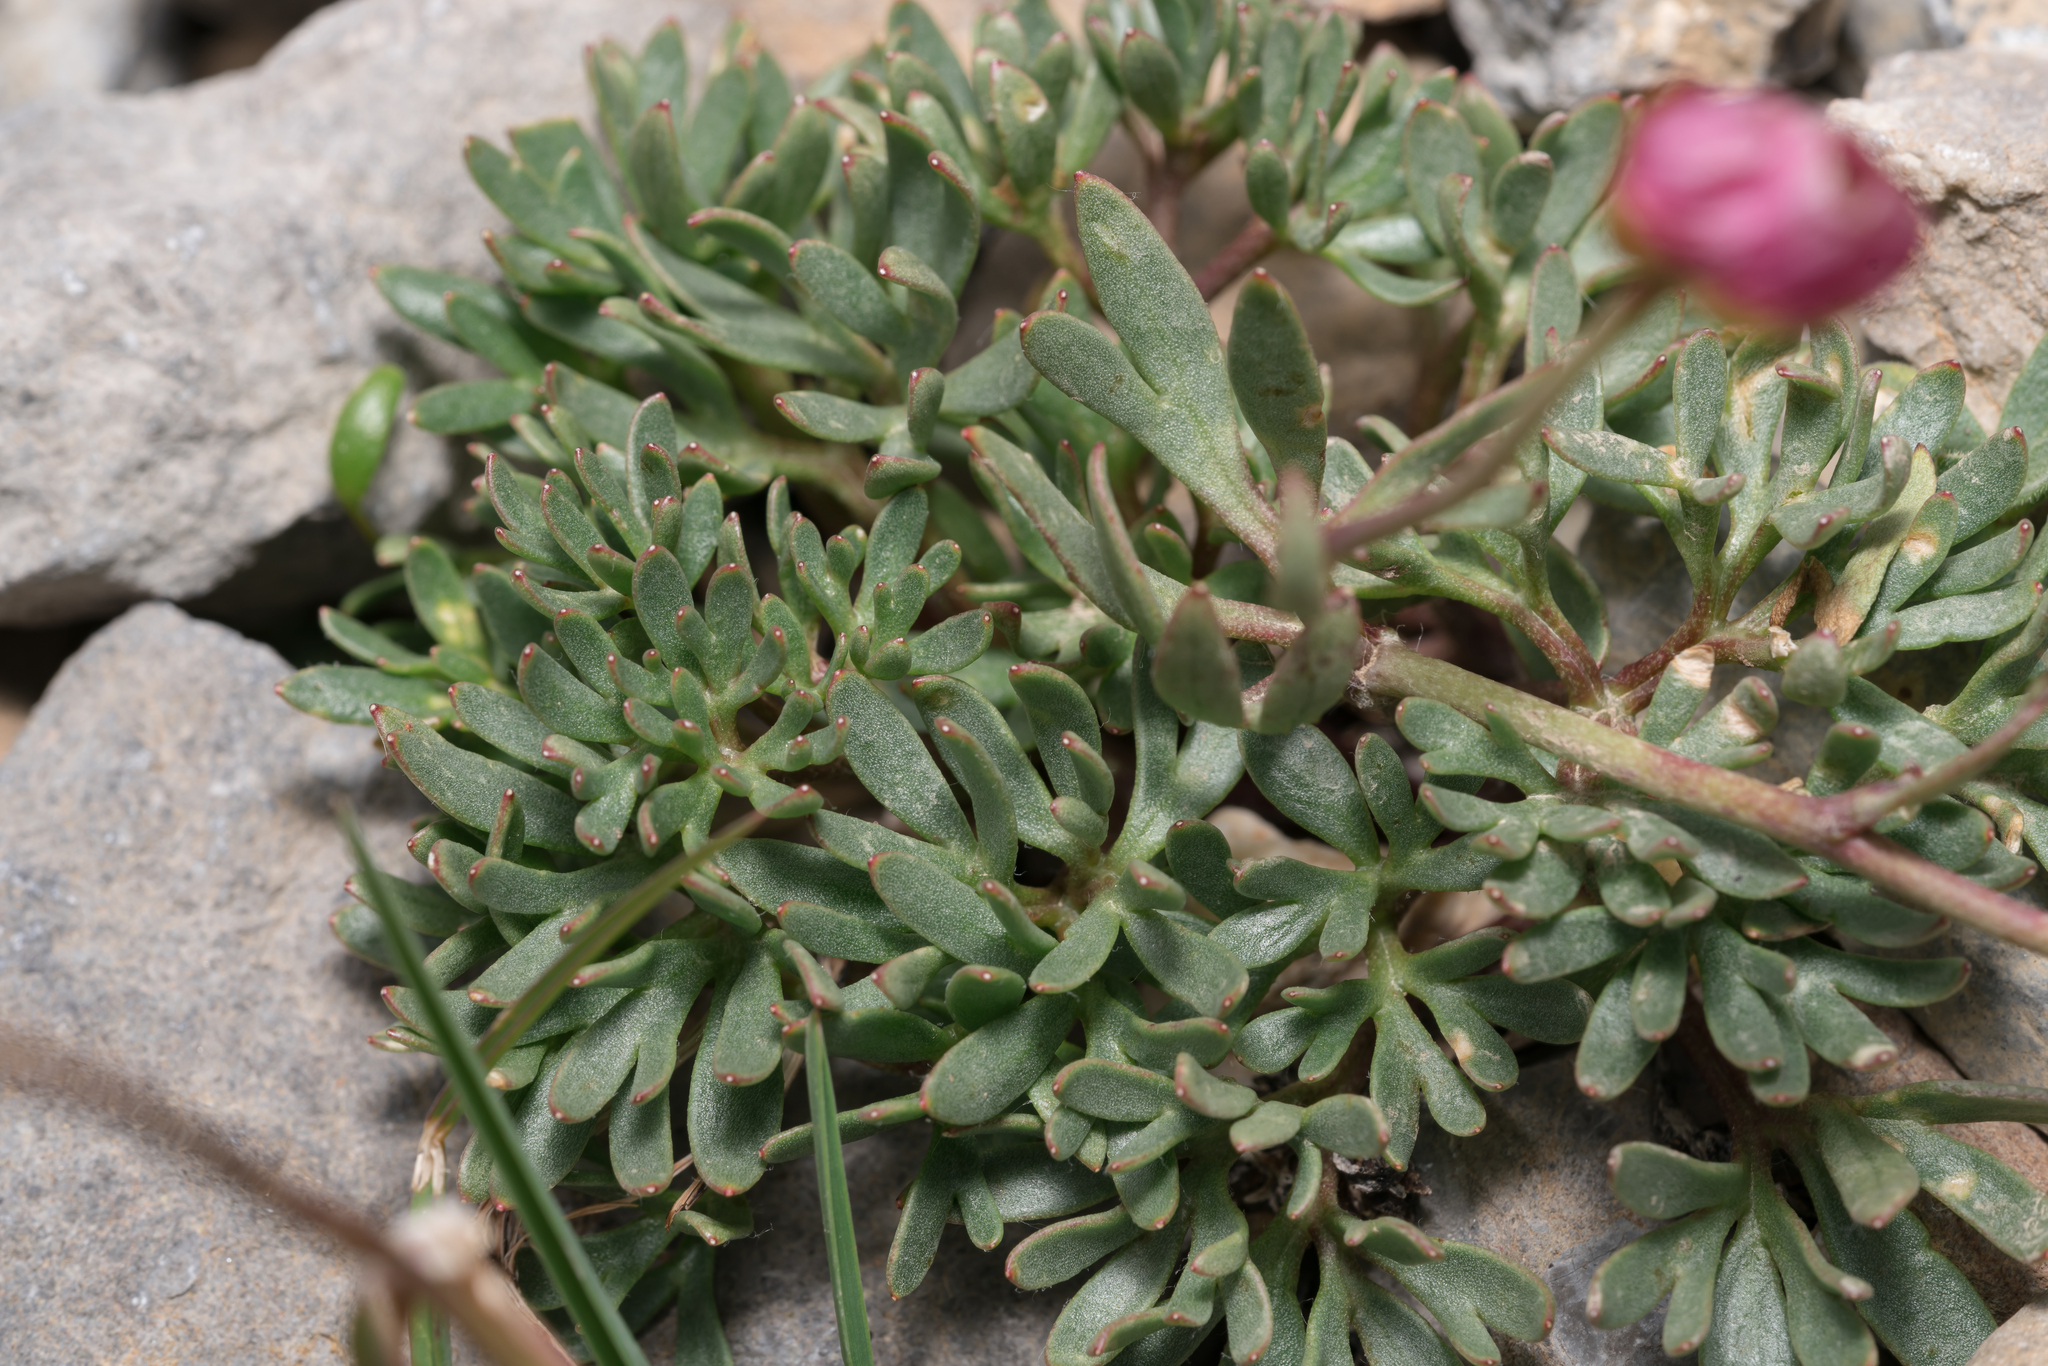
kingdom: Plantae
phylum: Tracheophyta
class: Magnoliopsida
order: Ranunculales
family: Ranunculaceae
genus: Ranunculus
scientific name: Ranunculus glacialis
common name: Glacier buttercup
